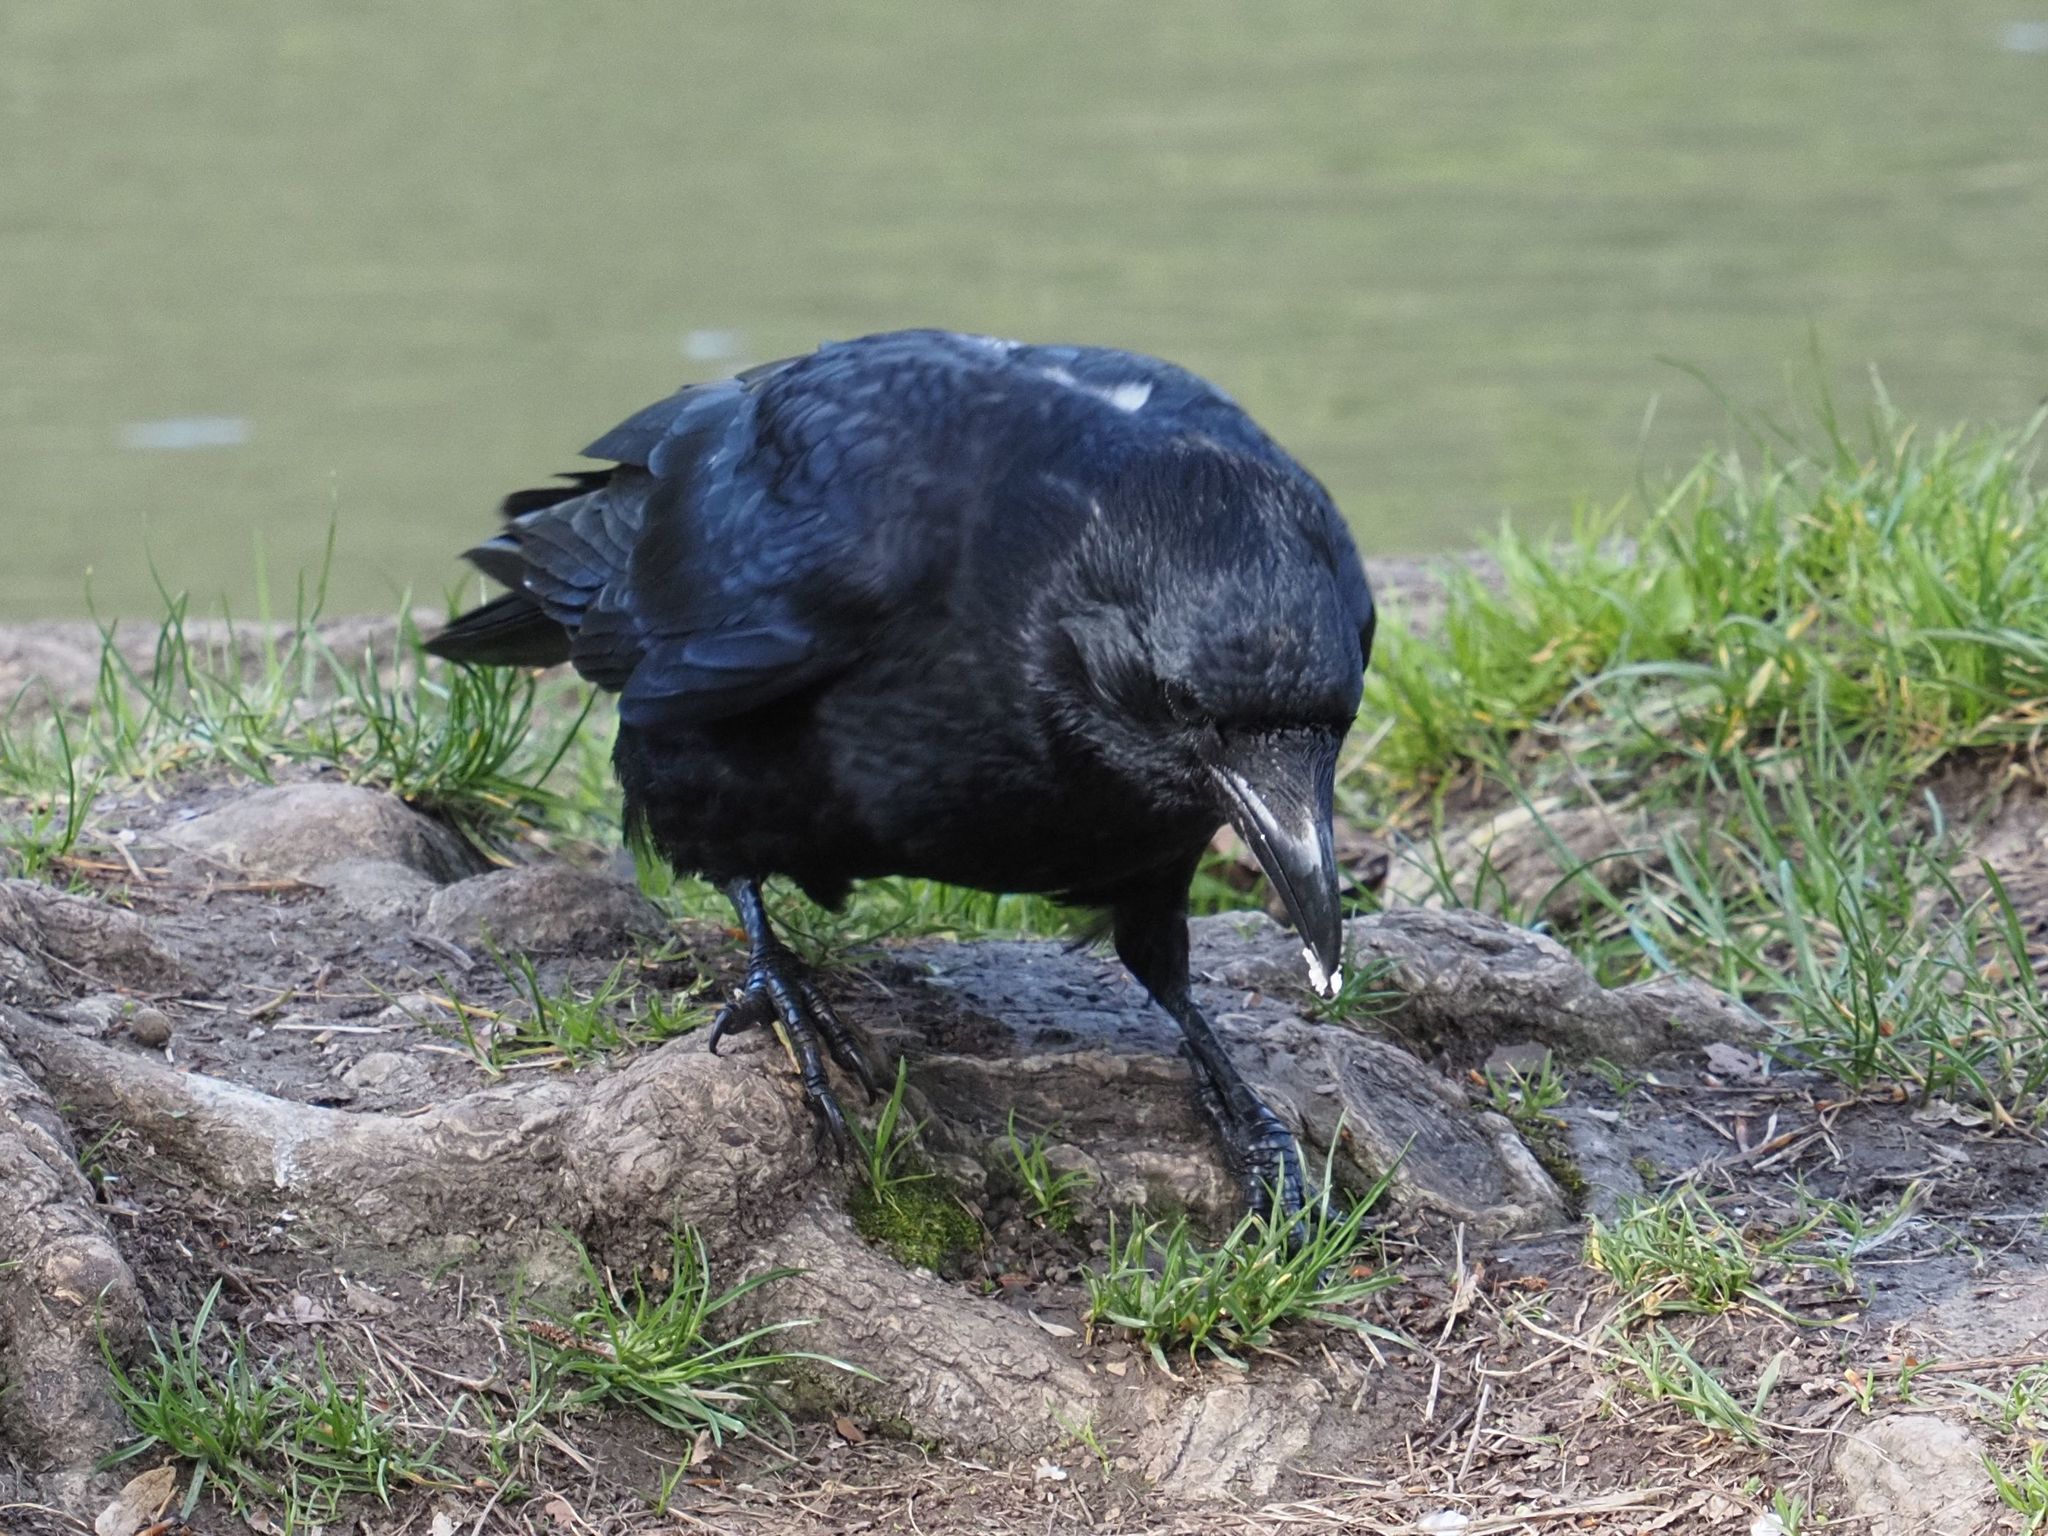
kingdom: Animalia
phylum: Chordata
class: Aves
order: Passeriformes
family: Corvidae
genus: Corvus
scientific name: Corvus corone
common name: Carrion crow
